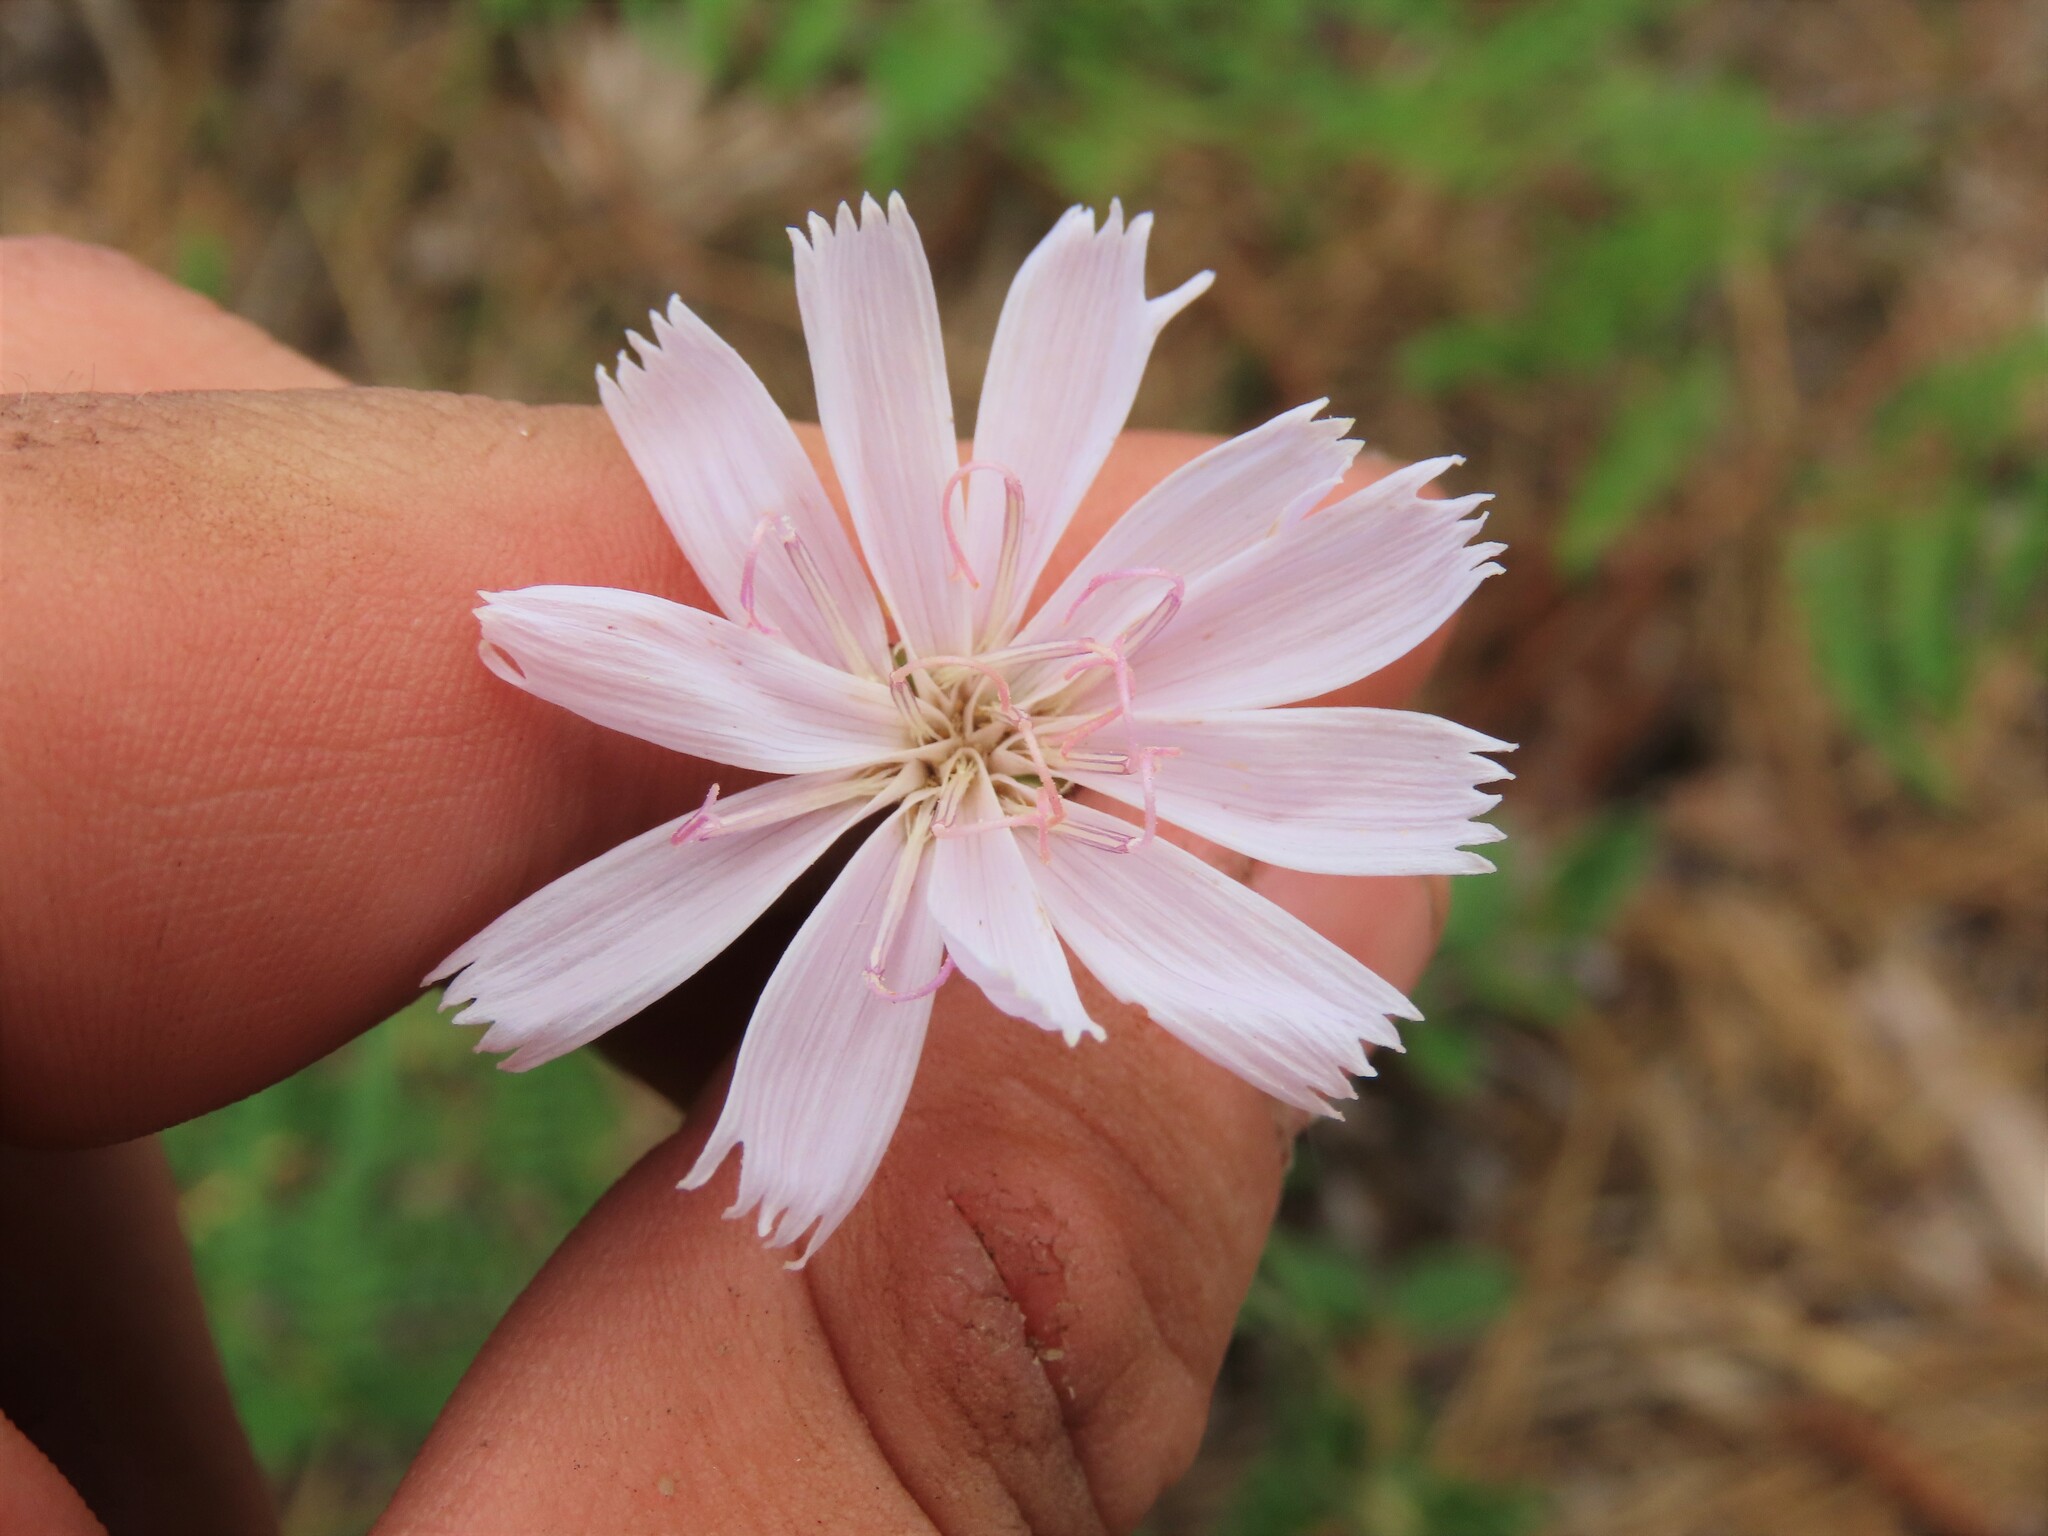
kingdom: Plantae
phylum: Tracheophyta
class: Magnoliopsida
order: Asterales
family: Asteraceae
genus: Lygodesmia
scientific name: Lygodesmia aphylla
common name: Rose-rush
